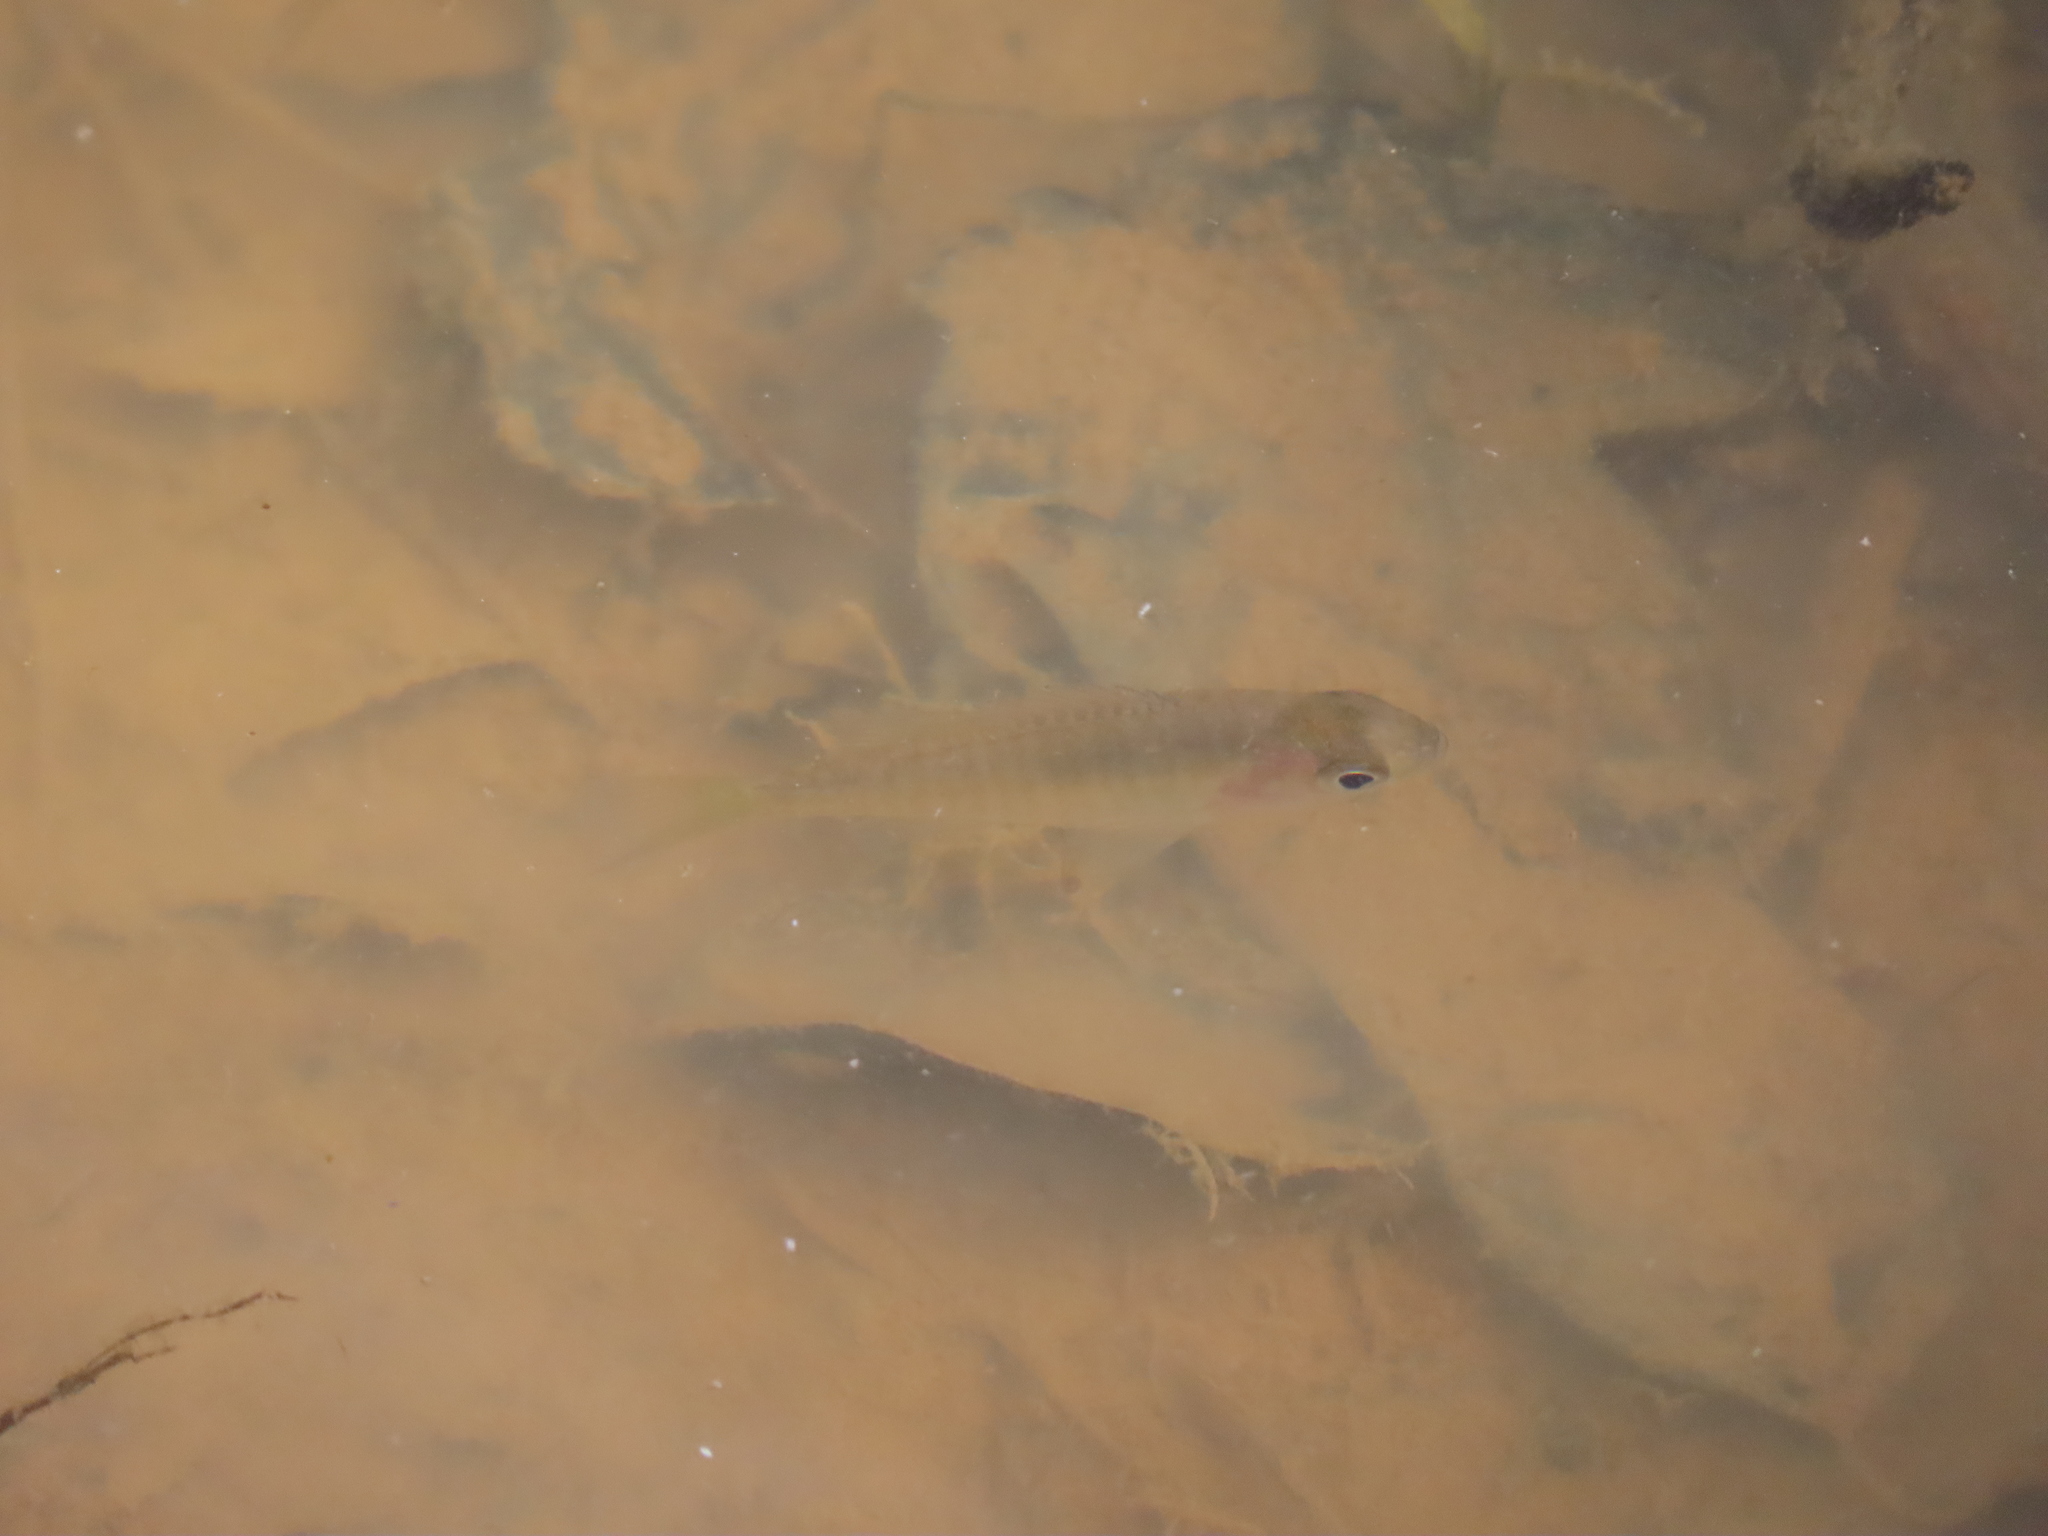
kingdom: Animalia
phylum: Chordata
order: Perciformes
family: Centrarchidae
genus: Lepomis
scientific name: Lepomis
